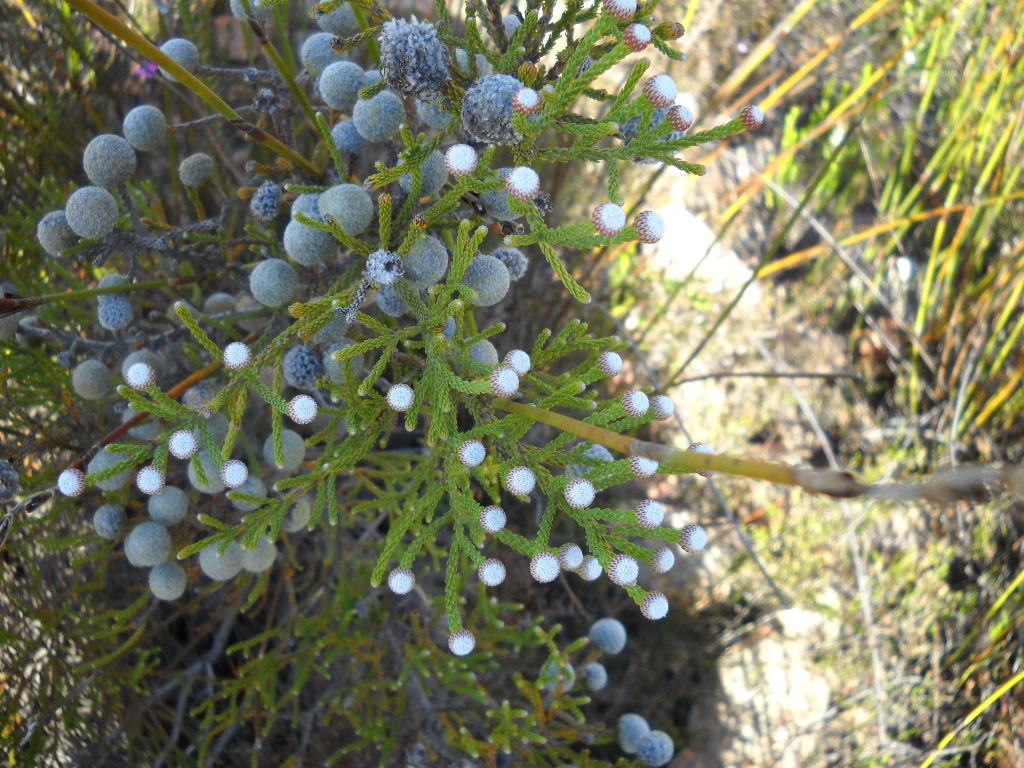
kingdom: Plantae
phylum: Tracheophyta
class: Magnoliopsida
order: Bruniales
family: Bruniaceae
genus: Brunia
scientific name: Brunia noduliflora
